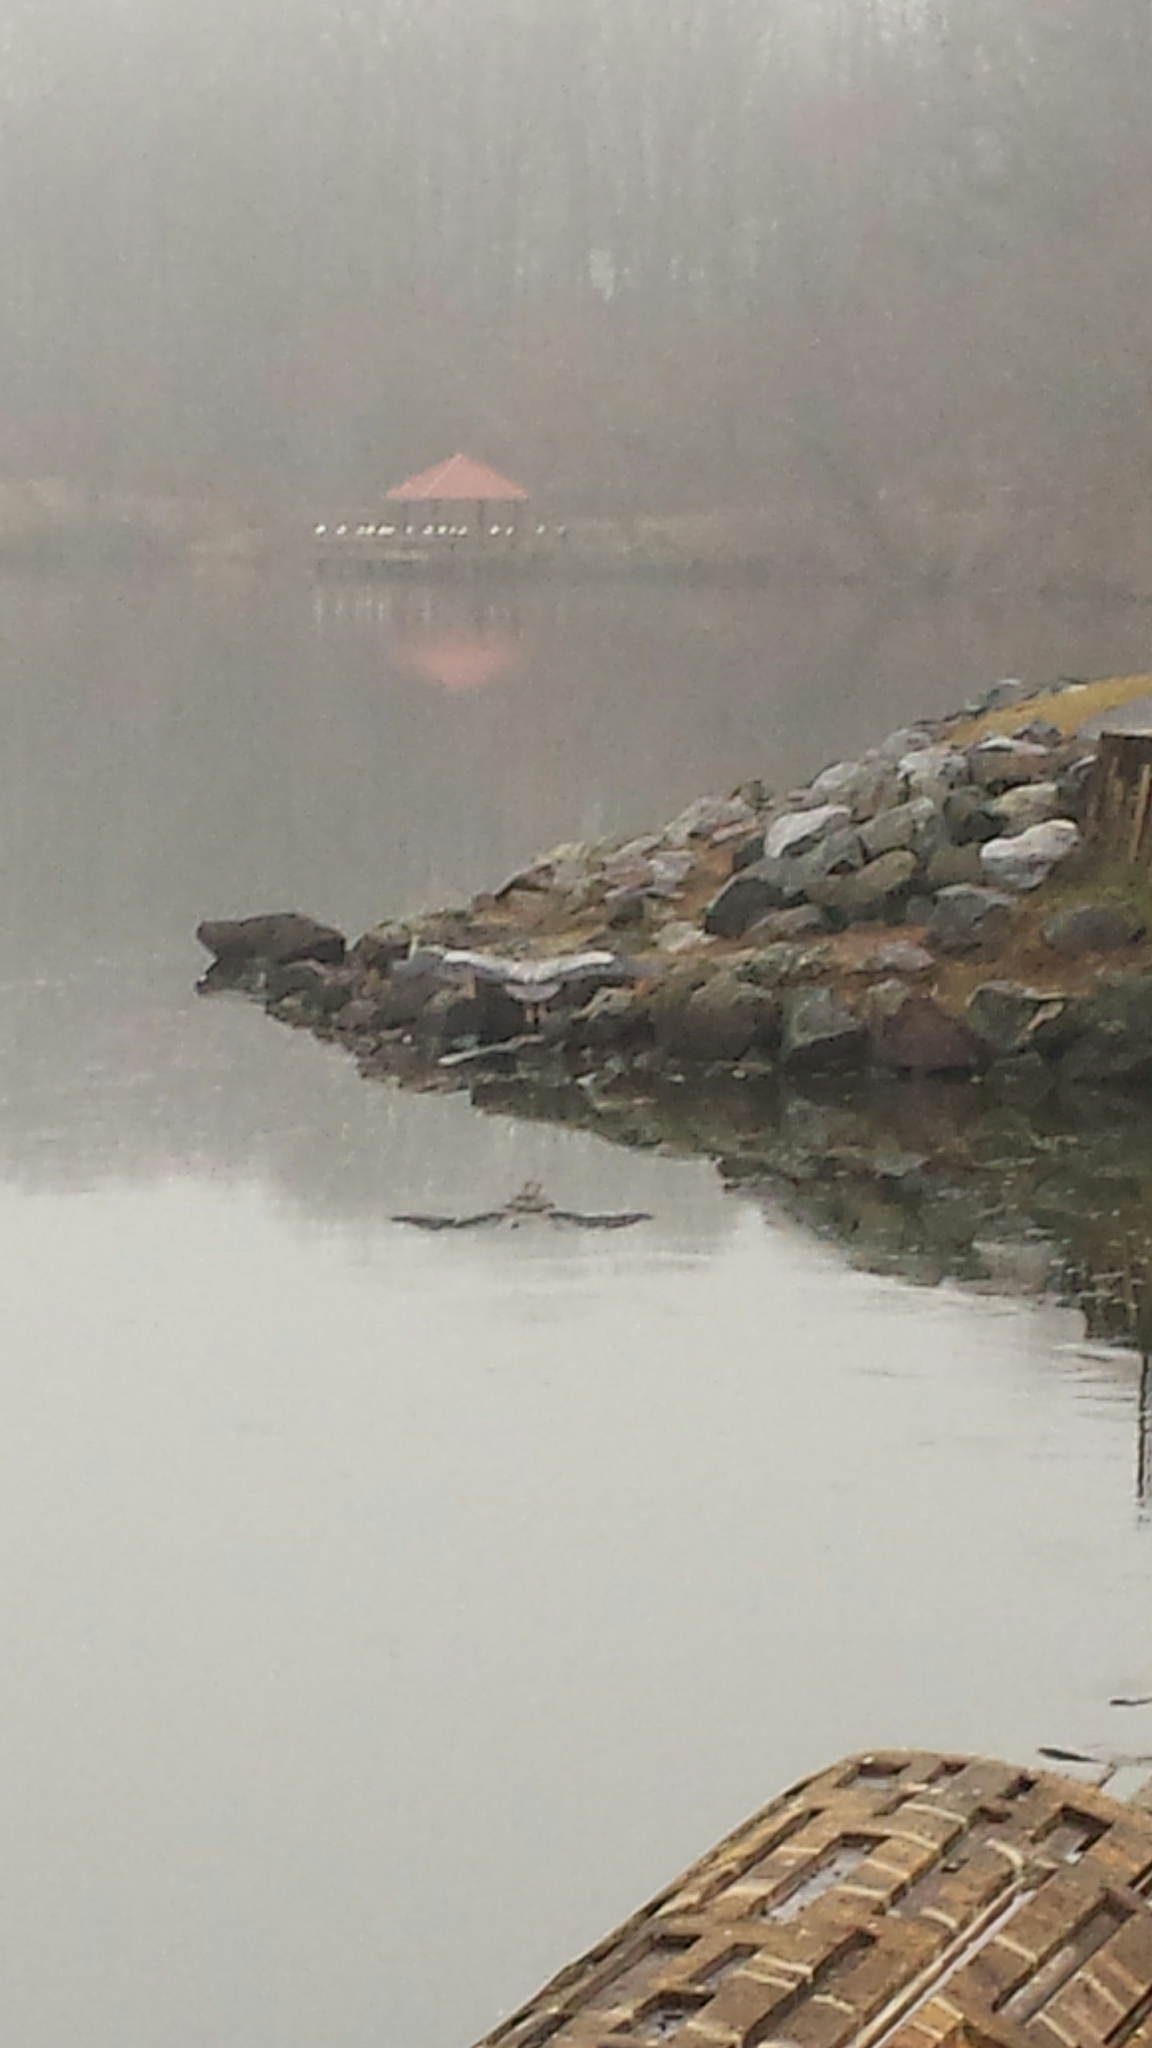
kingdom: Animalia
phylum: Chordata
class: Aves
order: Pelecaniformes
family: Ardeidae
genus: Ardea
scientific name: Ardea herodias
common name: Great blue heron
